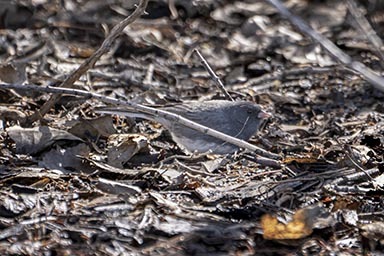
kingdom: Animalia
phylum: Chordata
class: Aves
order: Passeriformes
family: Passerellidae
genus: Junco
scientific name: Junco hyemalis
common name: Dark-eyed junco
